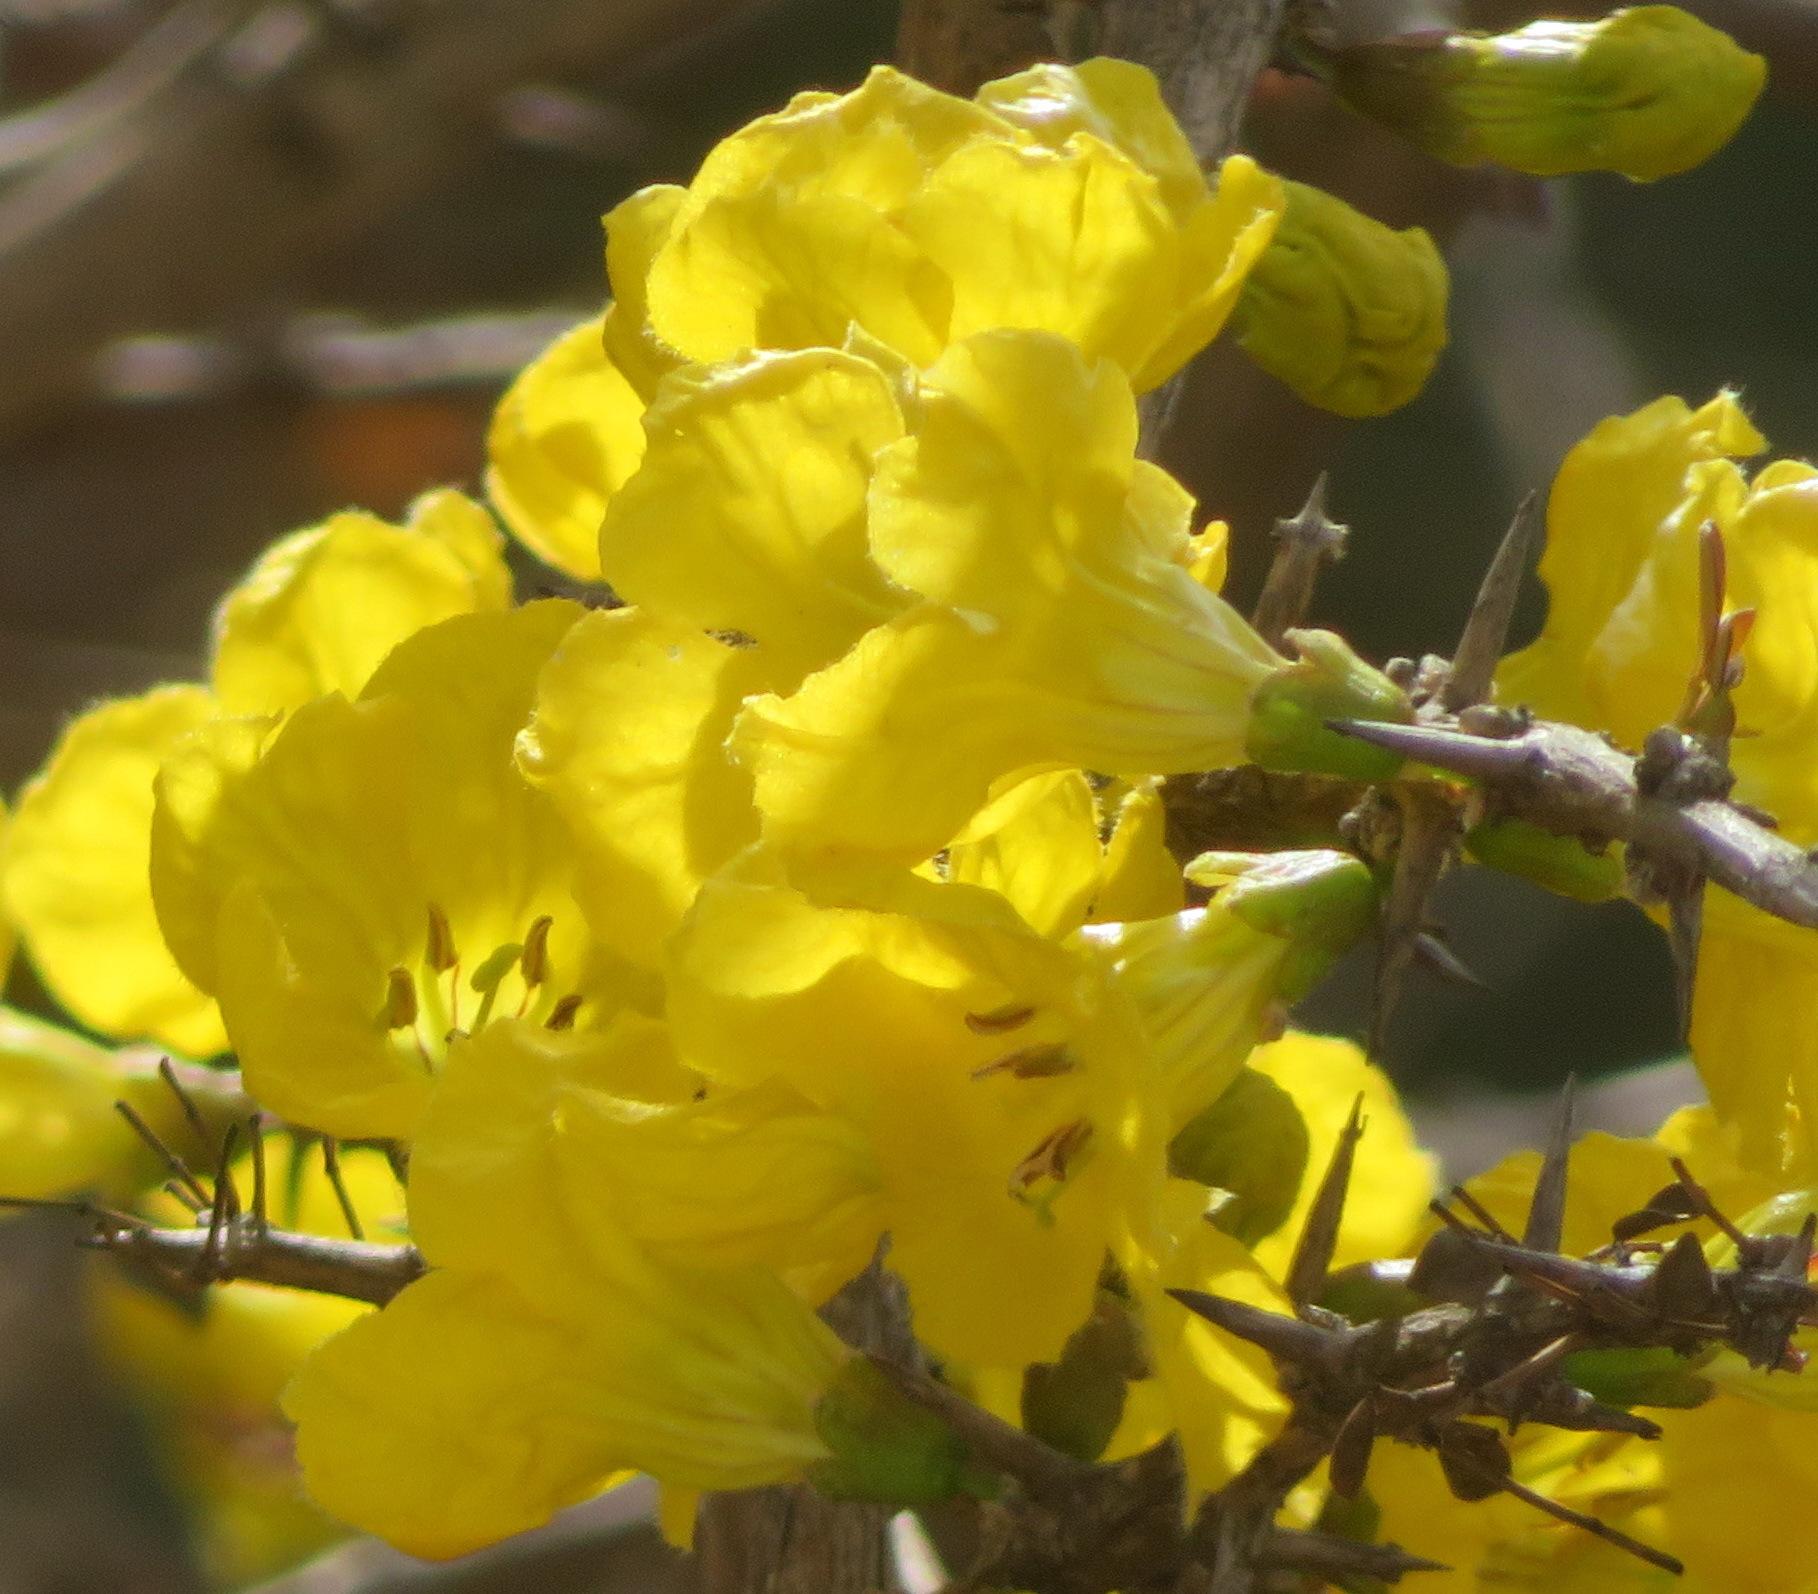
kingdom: Plantae
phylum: Tracheophyta
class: Magnoliopsida
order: Lamiales
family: Bignoniaceae
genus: Rhigozum
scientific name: Rhigozum zambesiacum
